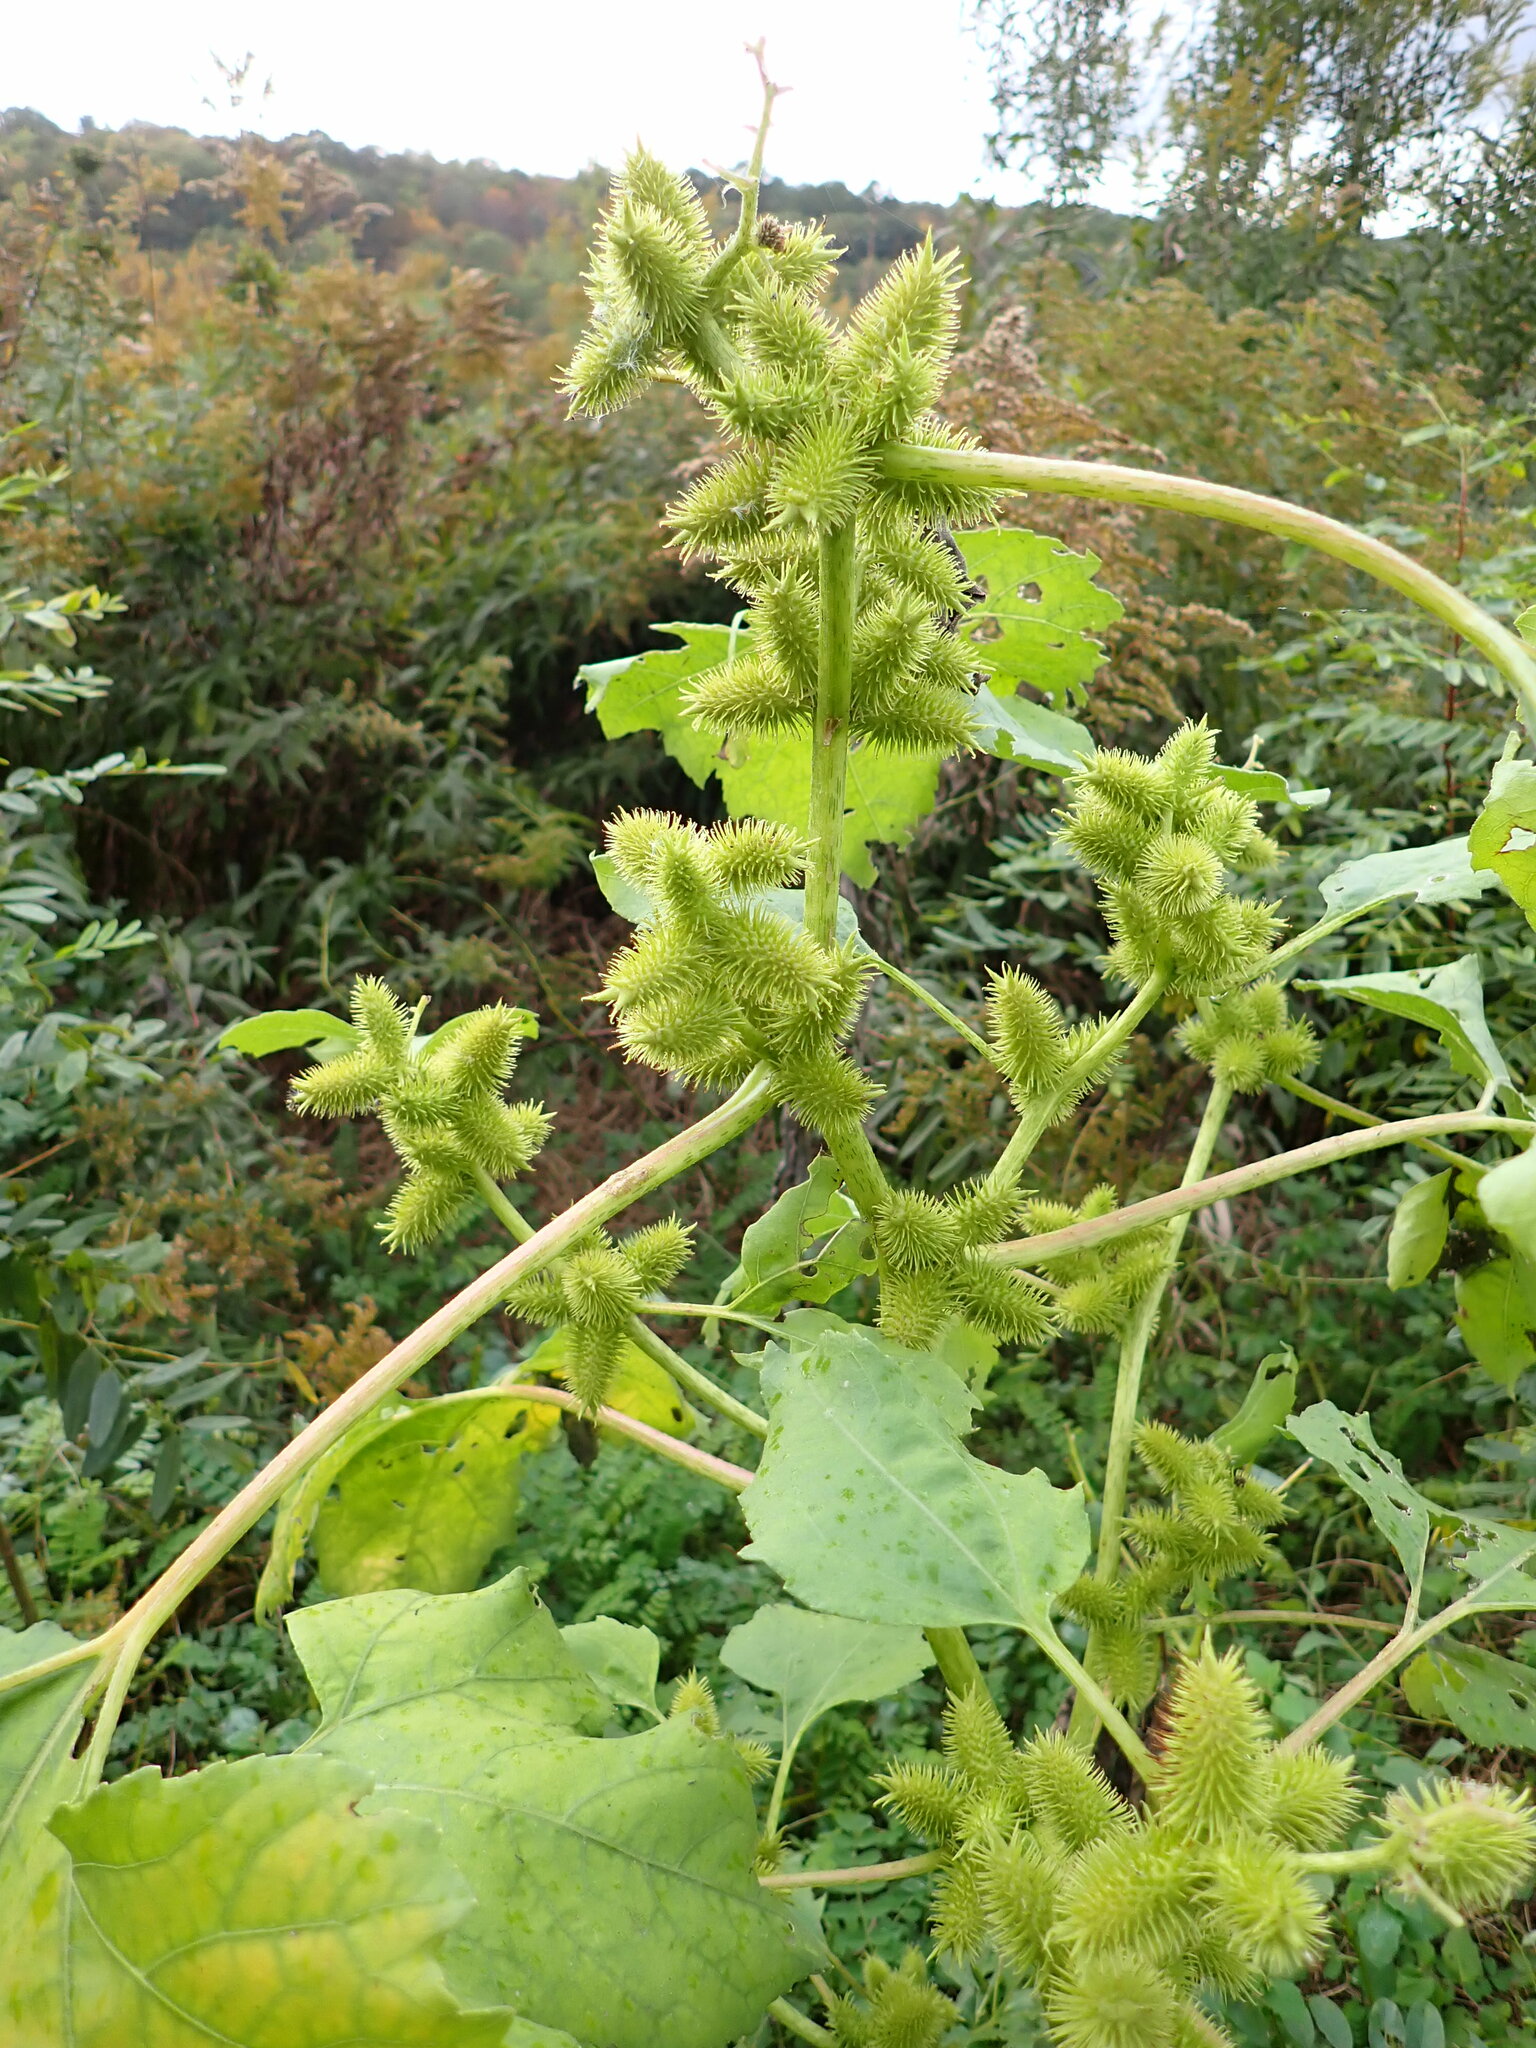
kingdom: Plantae
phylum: Tracheophyta
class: Magnoliopsida
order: Asterales
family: Asteraceae
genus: Xanthium
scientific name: Xanthium strumarium
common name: Rough cocklebur
